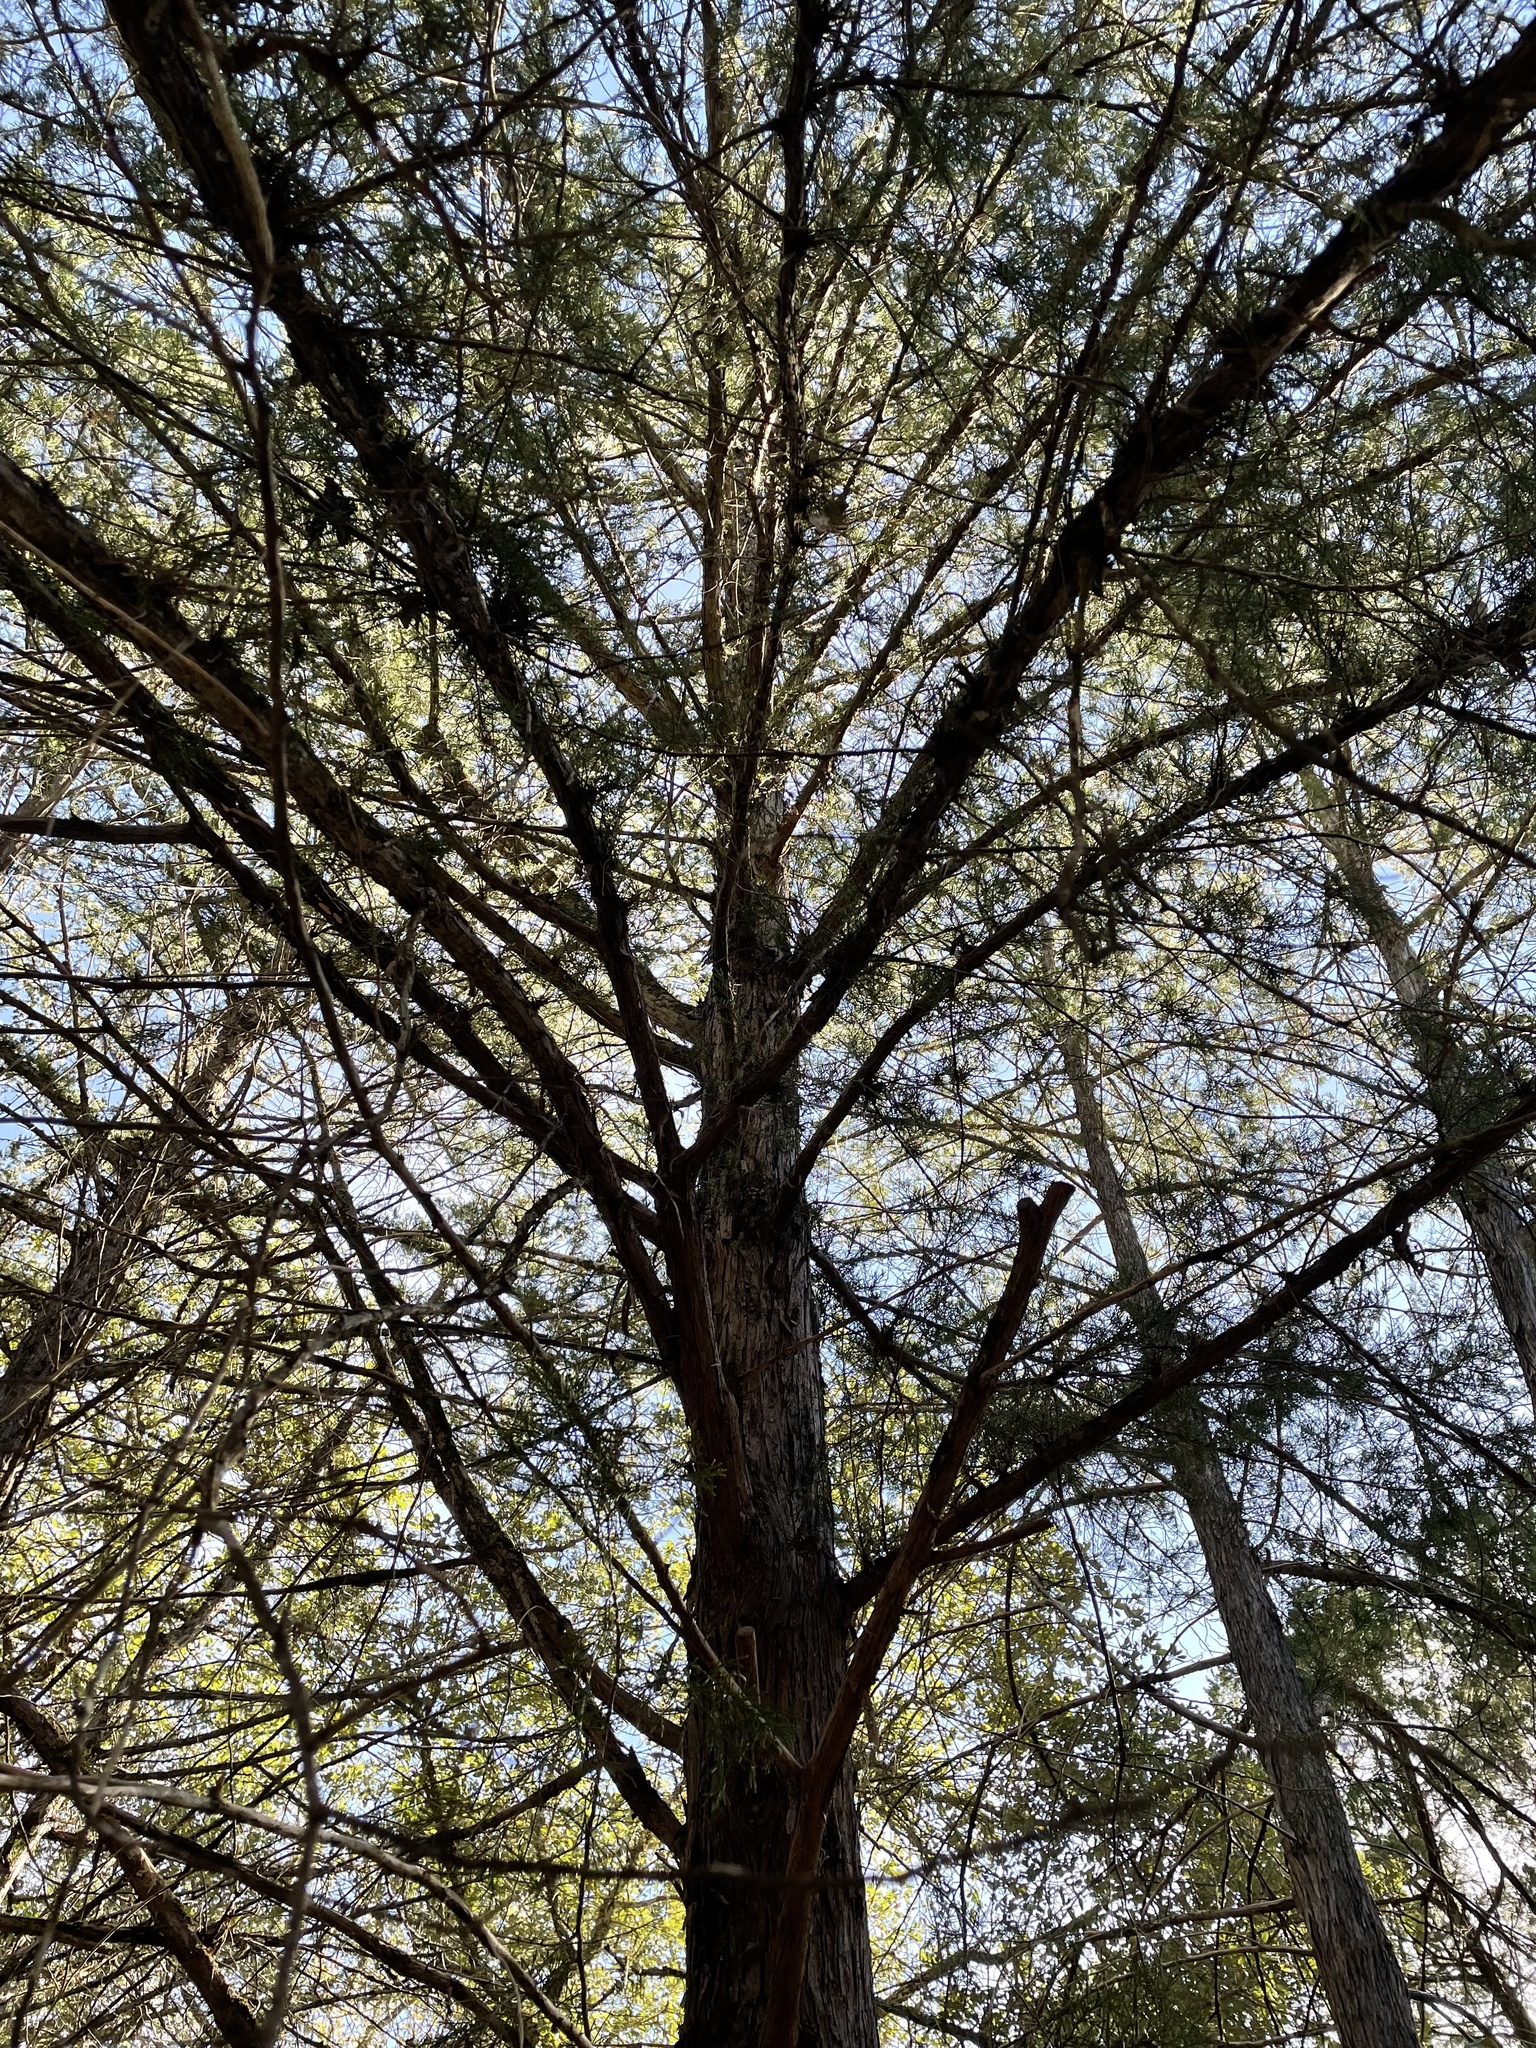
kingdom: Plantae
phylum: Tracheophyta
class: Pinopsida
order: Pinales
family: Cupressaceae
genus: Juniperus
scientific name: Juniperus virginiana
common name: Red juniper
